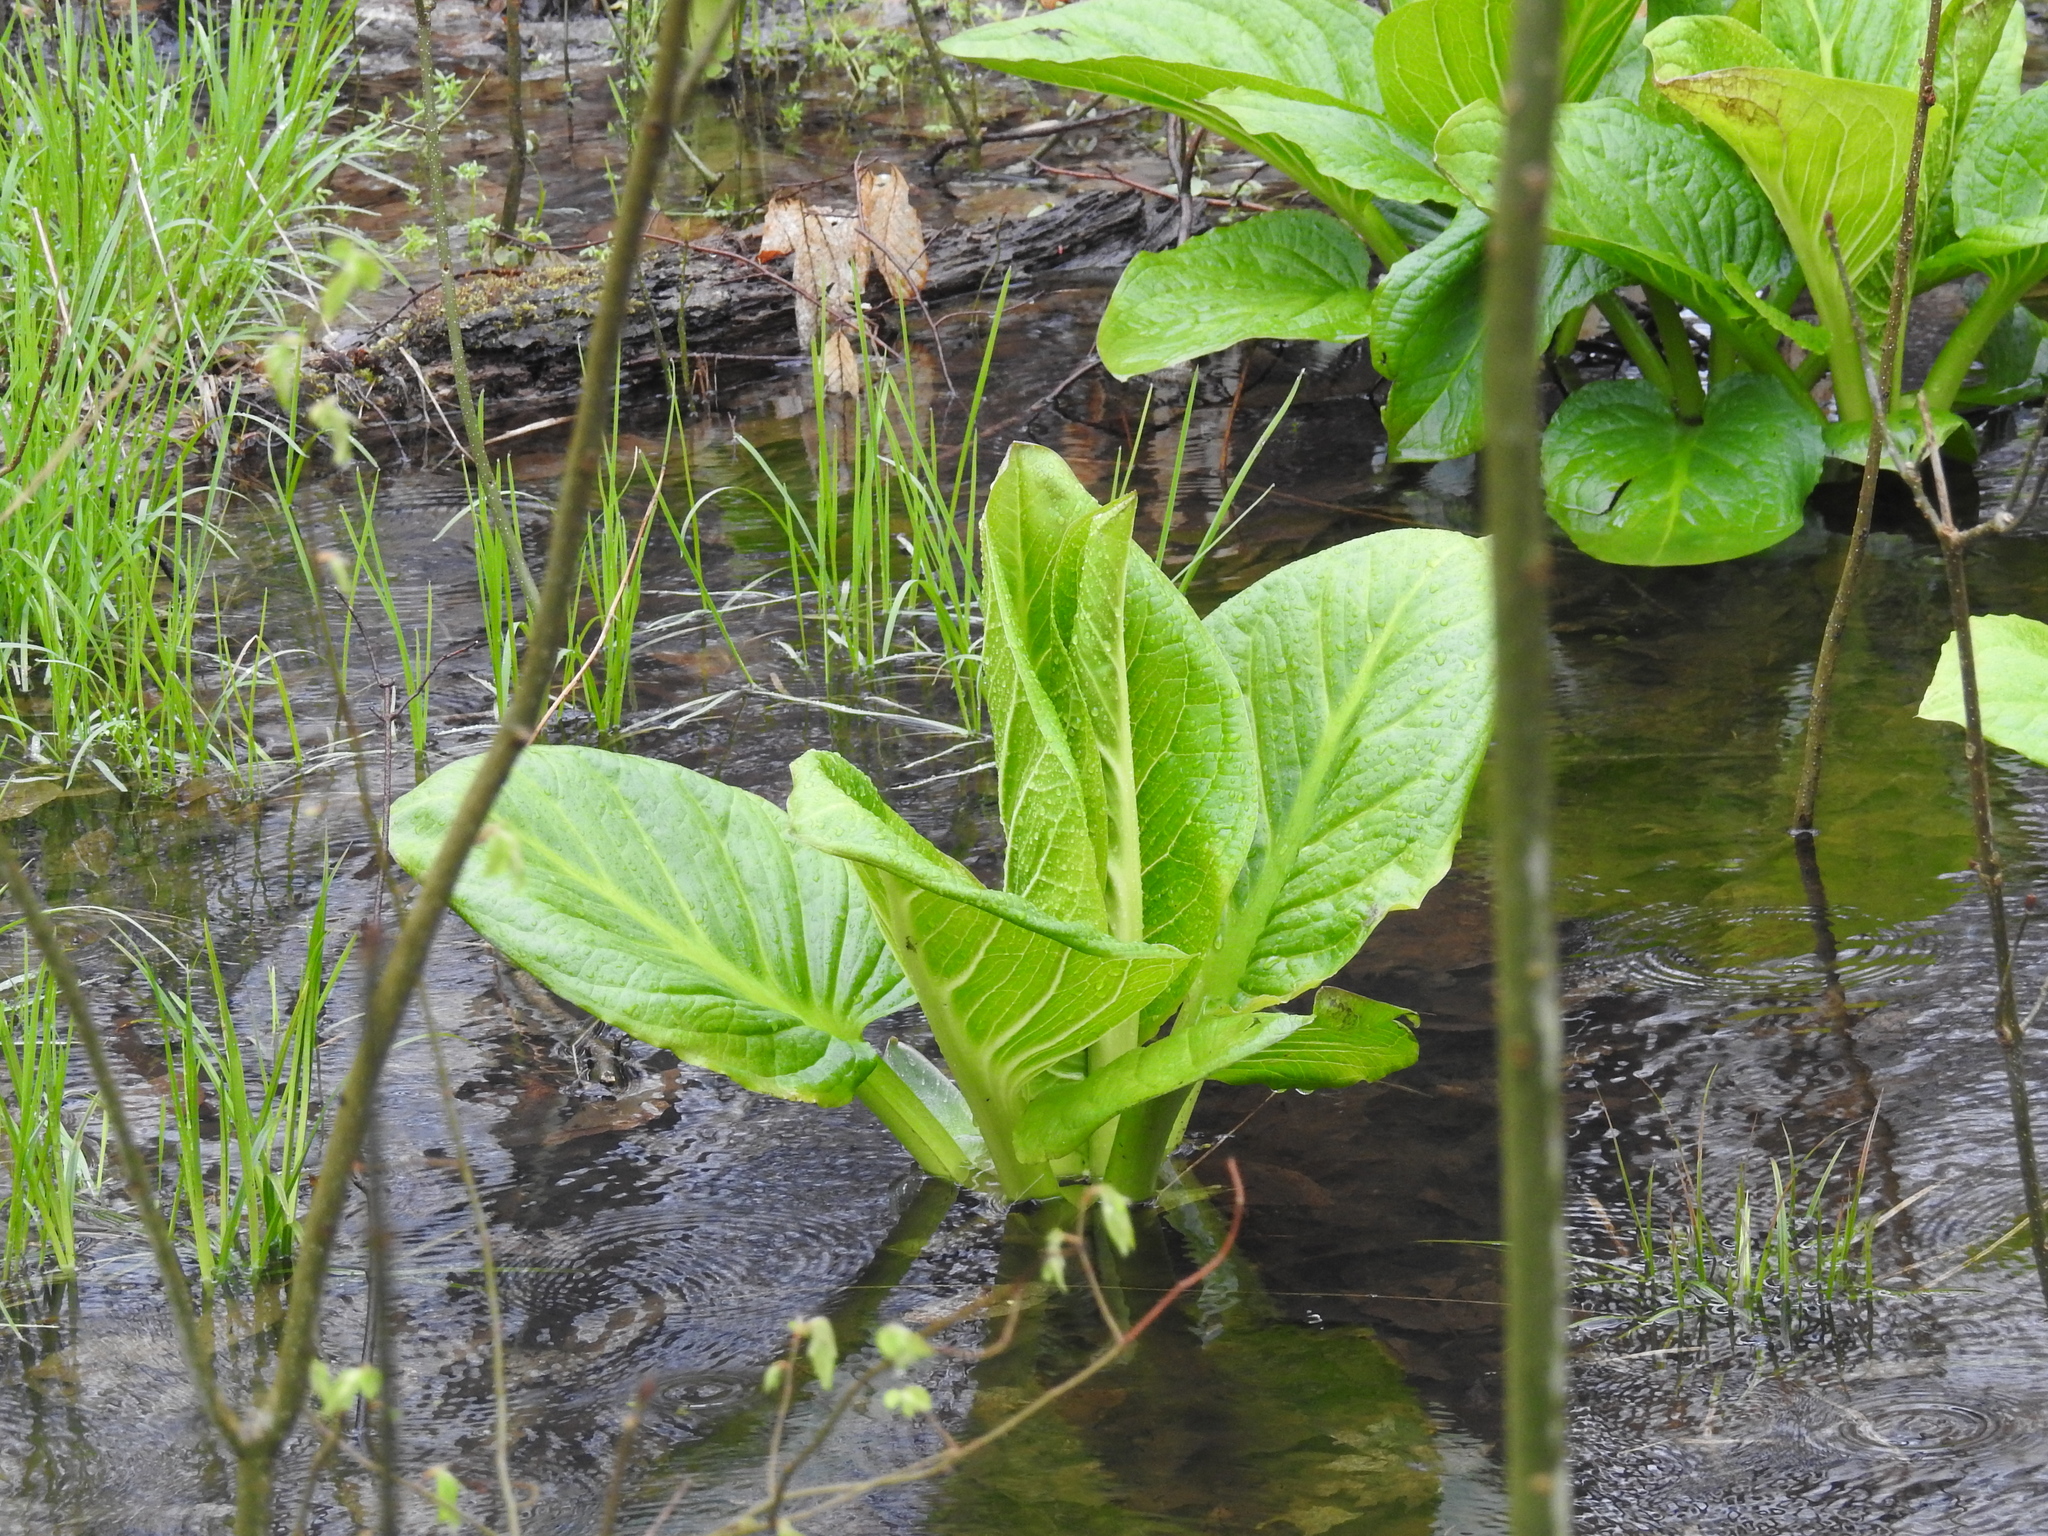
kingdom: Plantae
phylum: Tracheophyta
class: Liliopsida
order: Alismatales
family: Araceae
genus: Symplocarpus
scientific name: Symplocarpus foetidus
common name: Eastern skunk cabbage
